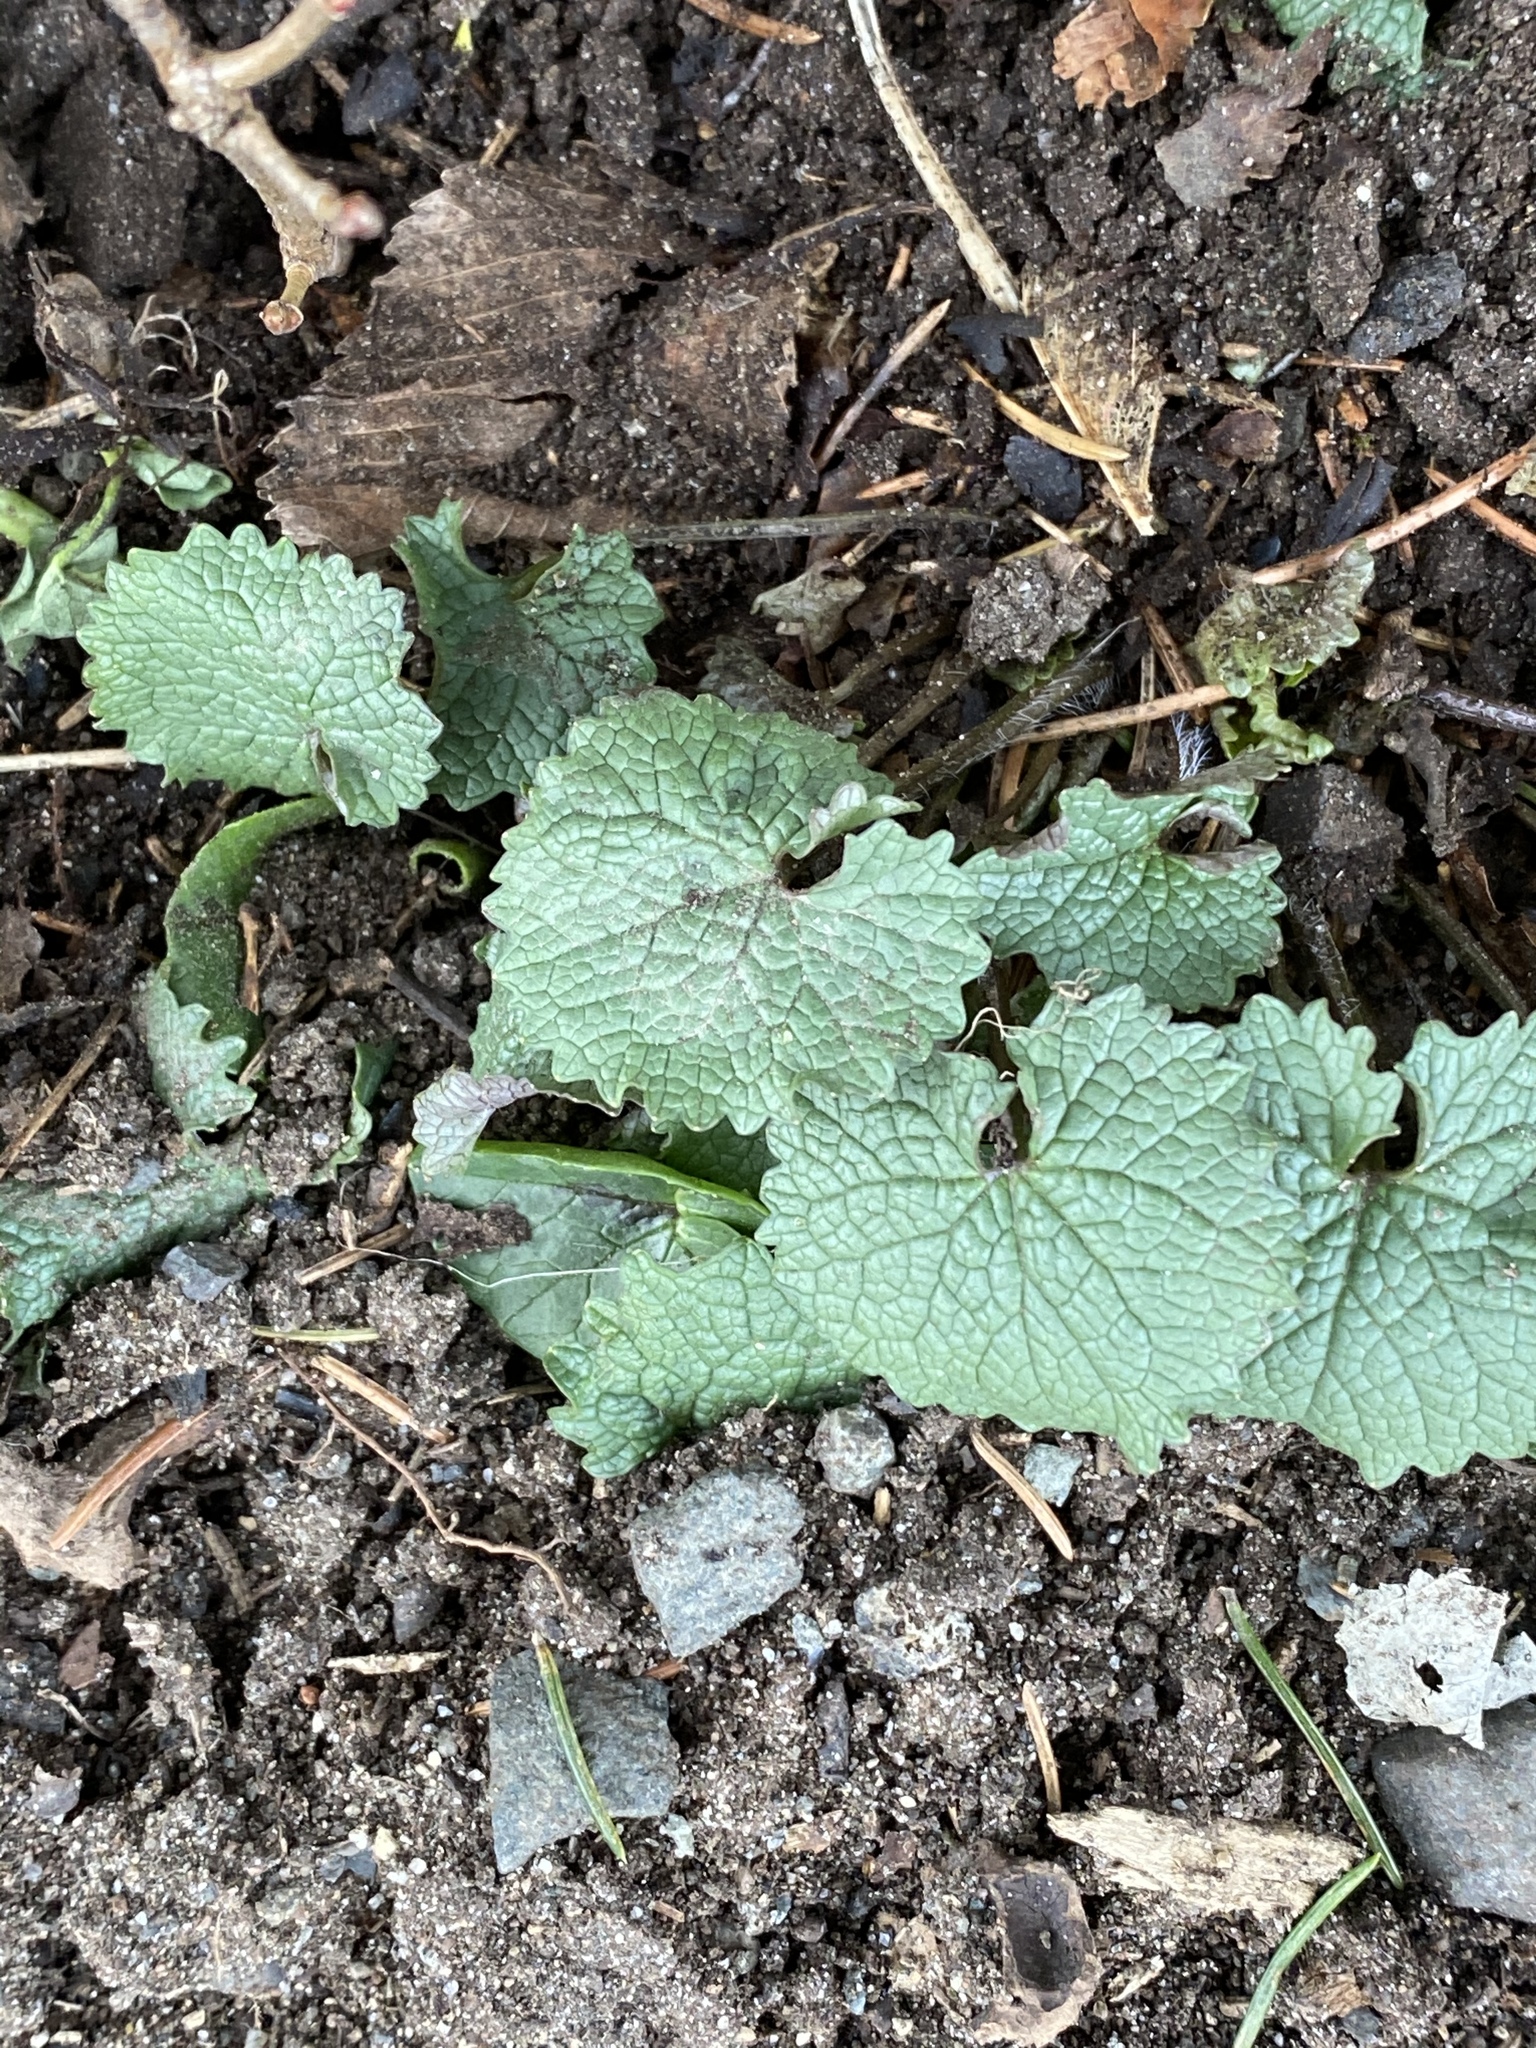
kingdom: Plantae
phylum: Tracheophyta
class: Magnoliopsida
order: Brassicales
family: Brassicaceae
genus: Alliaria
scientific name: Alliaria petiolata
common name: Garlic mustard
